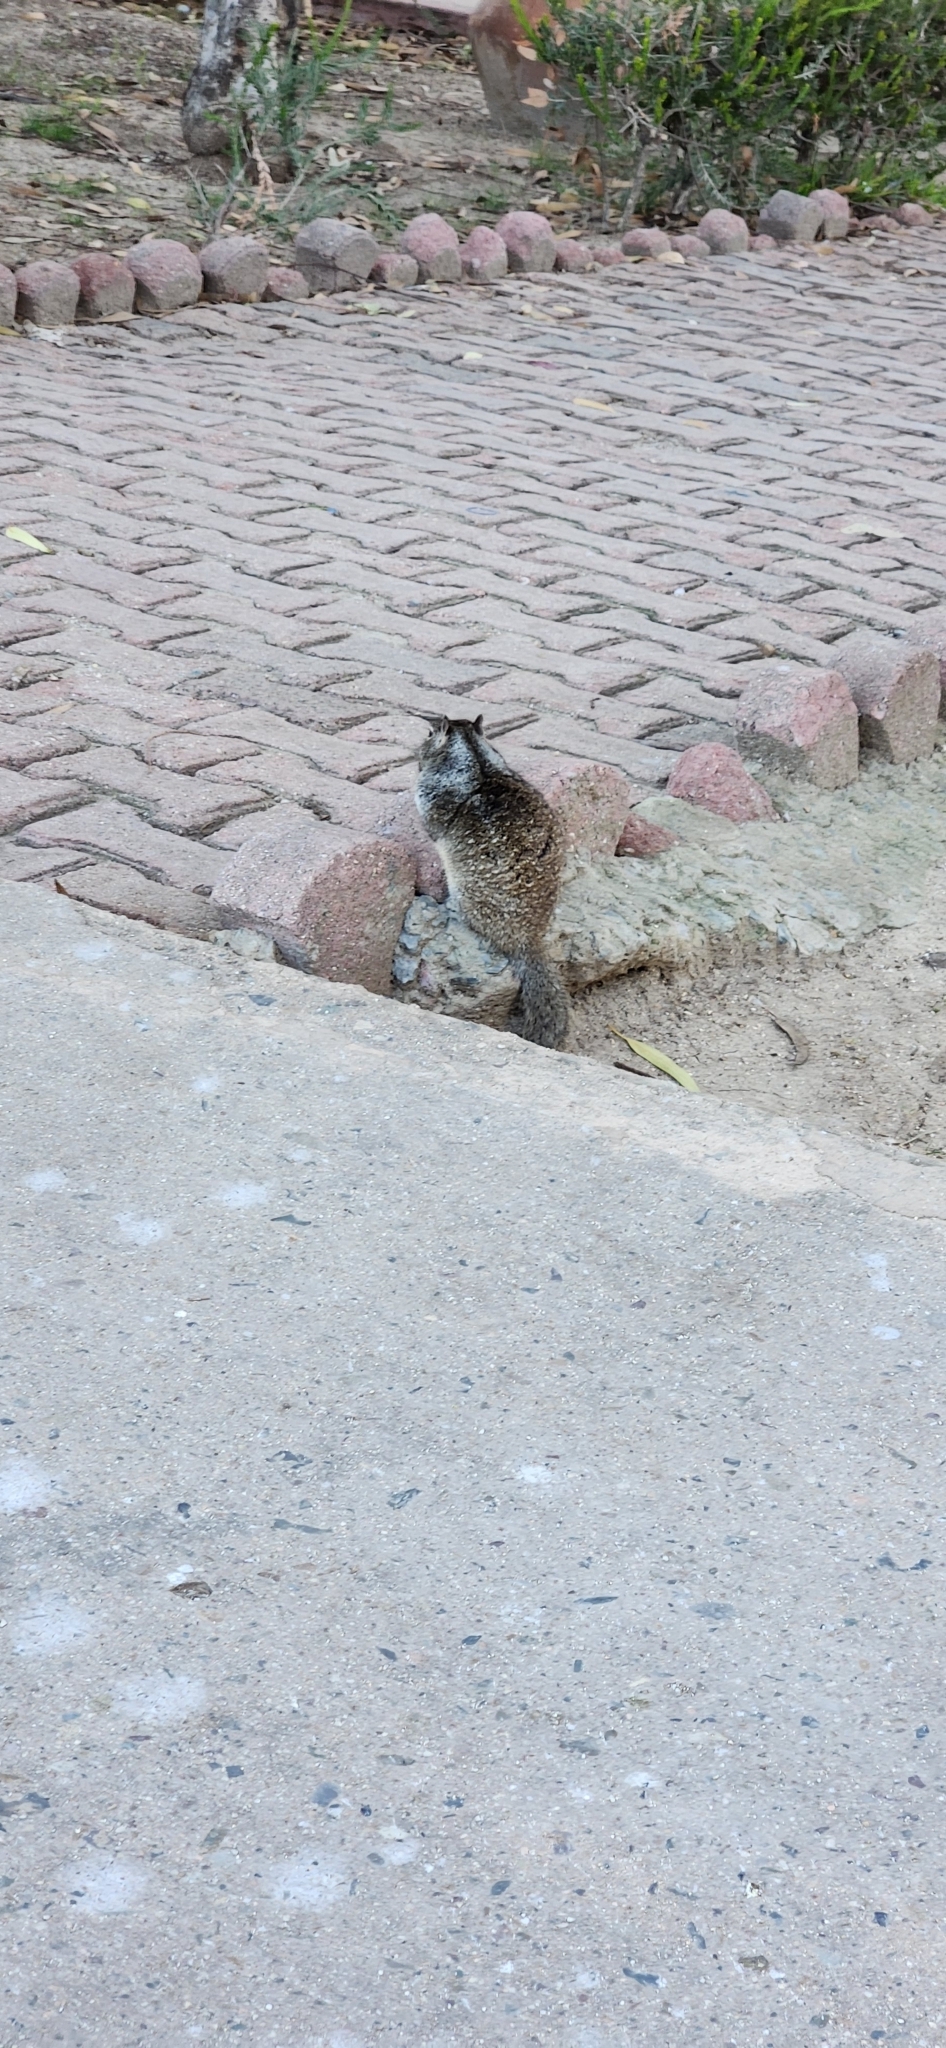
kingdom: Animalia
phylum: Chordata
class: Mammalia
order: Rodentia
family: Sciuridae
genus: Otospermophilus
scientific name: Otospermophilus beecheyi
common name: California ground squirrel
